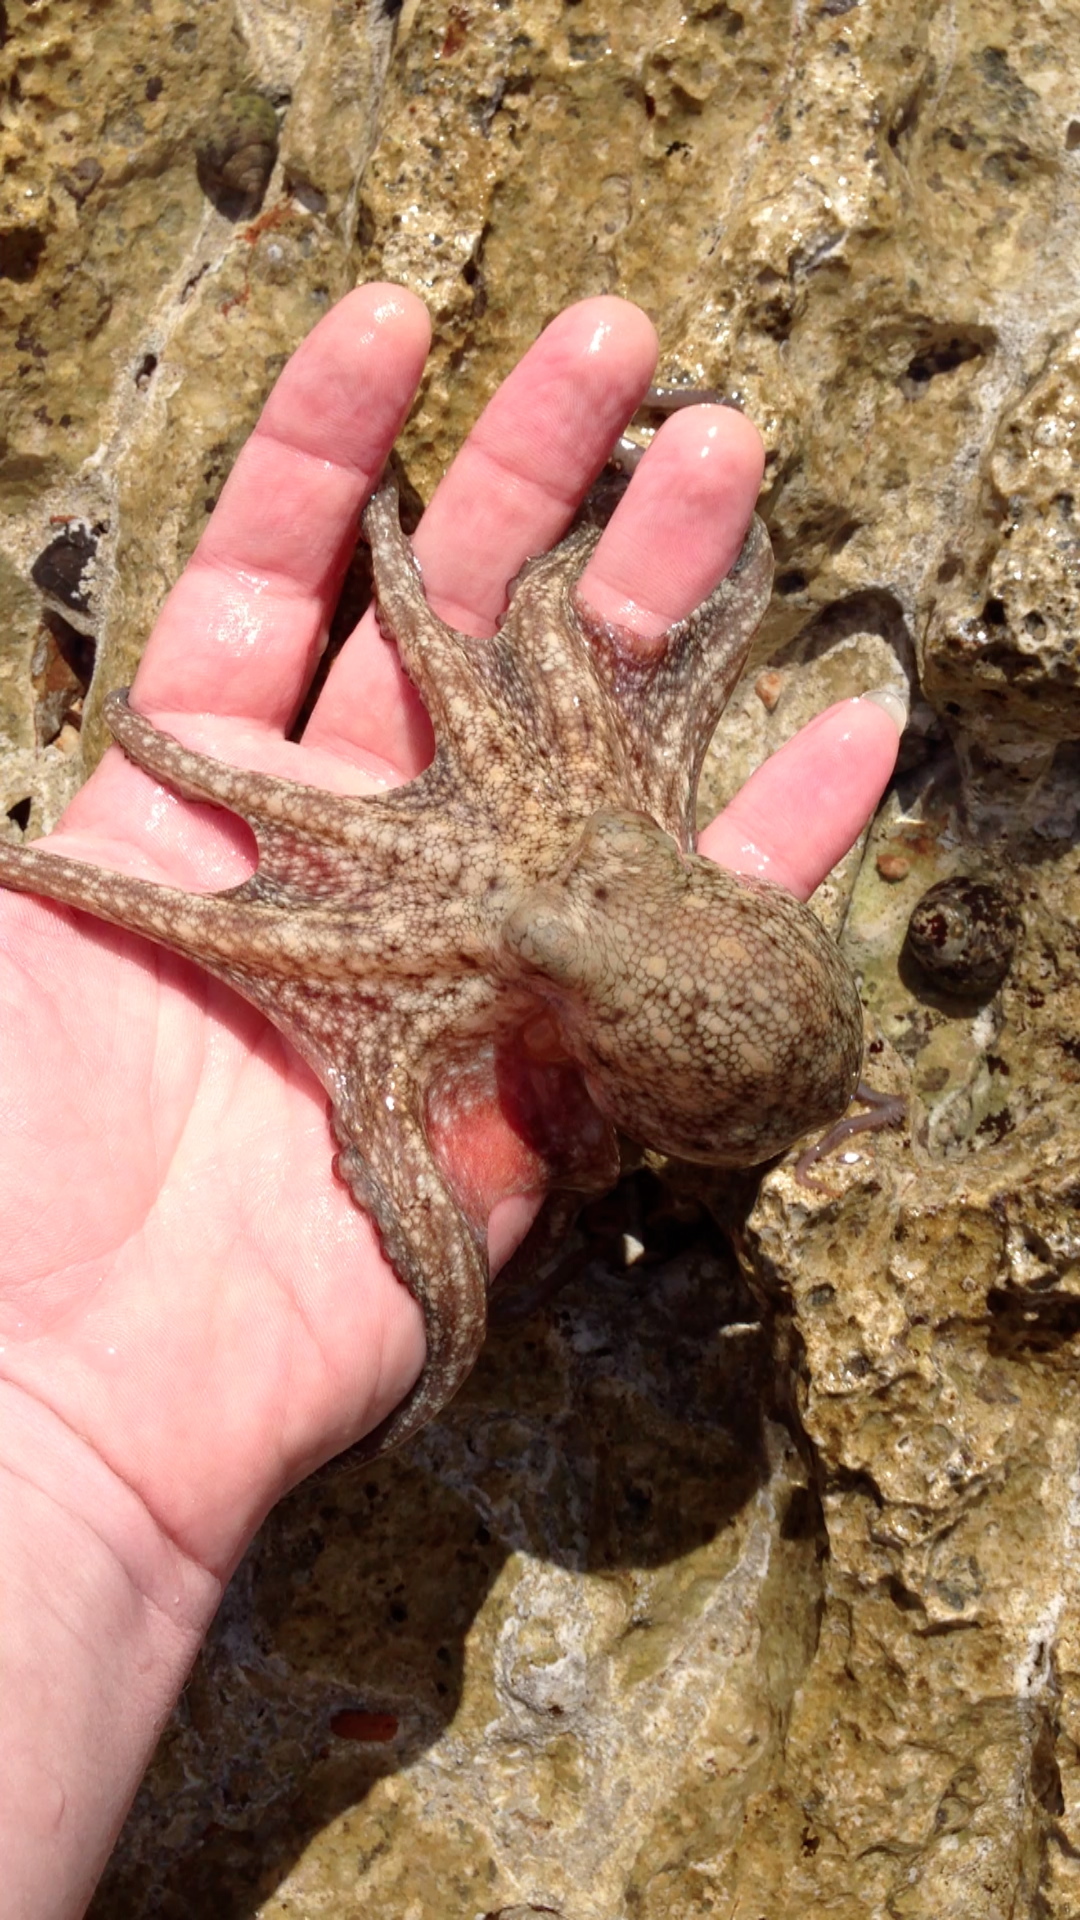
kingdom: Animalia
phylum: Mollusca
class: Cephalopoda
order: Octopoda
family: Octopodidae
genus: Octopus
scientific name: Octopus vulgaris
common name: Common octopus
